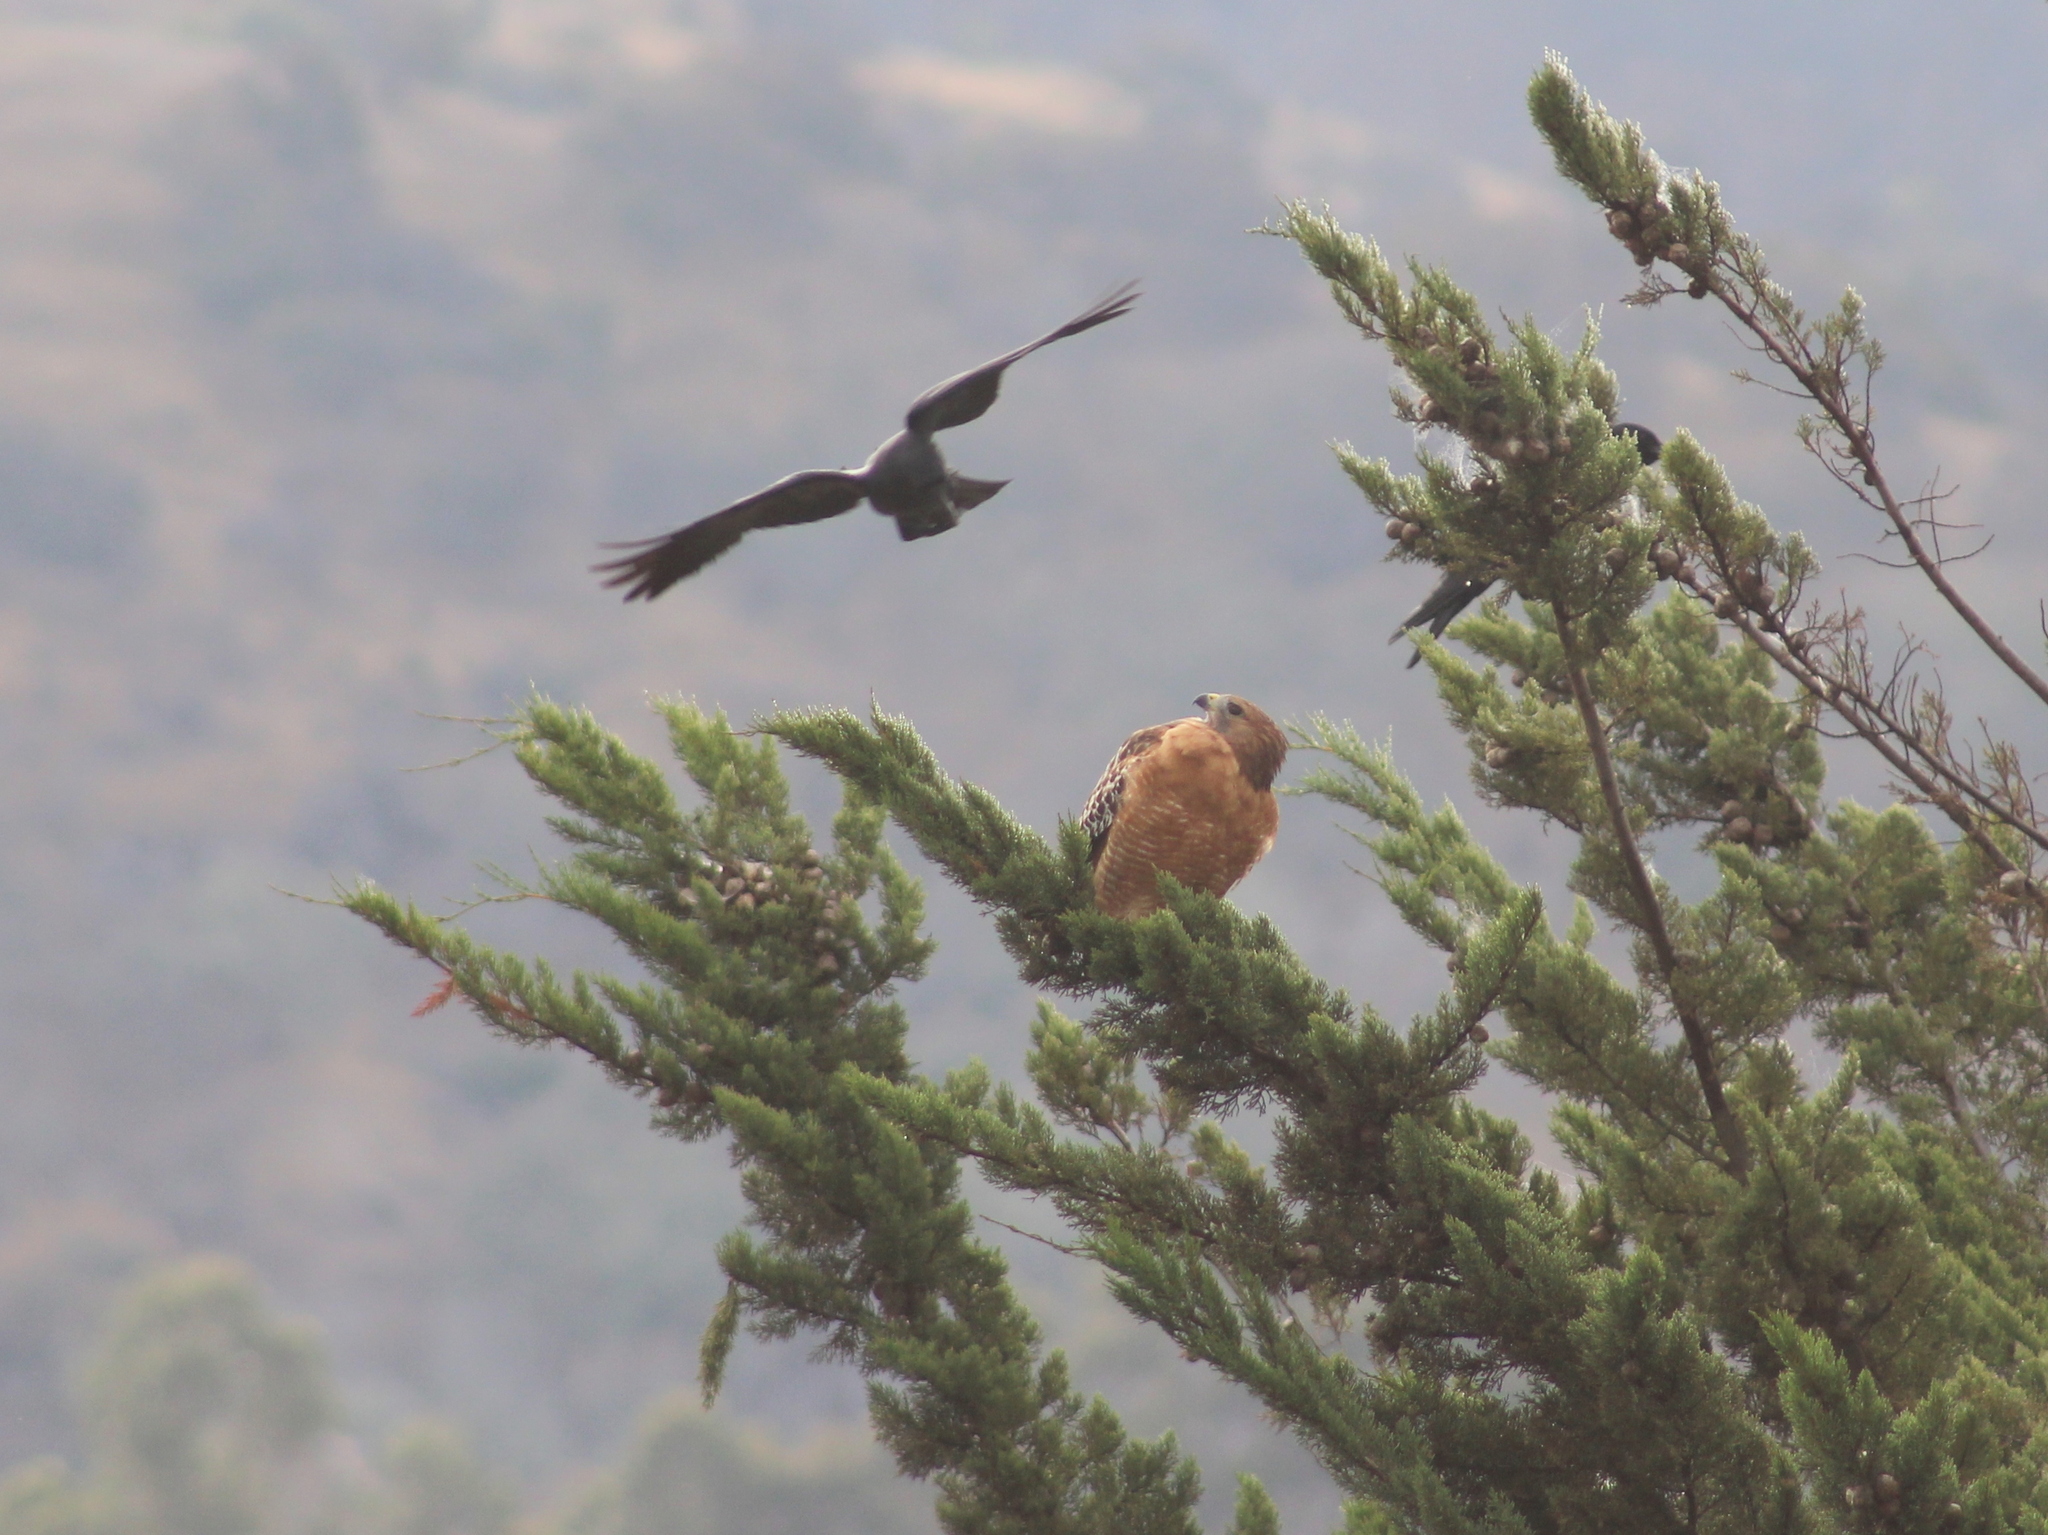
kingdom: Animalia
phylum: Chordata
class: Aves
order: Passeriformes
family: Corvidae
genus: Corvus
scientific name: Corvus brachyrhynchos
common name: American crow
